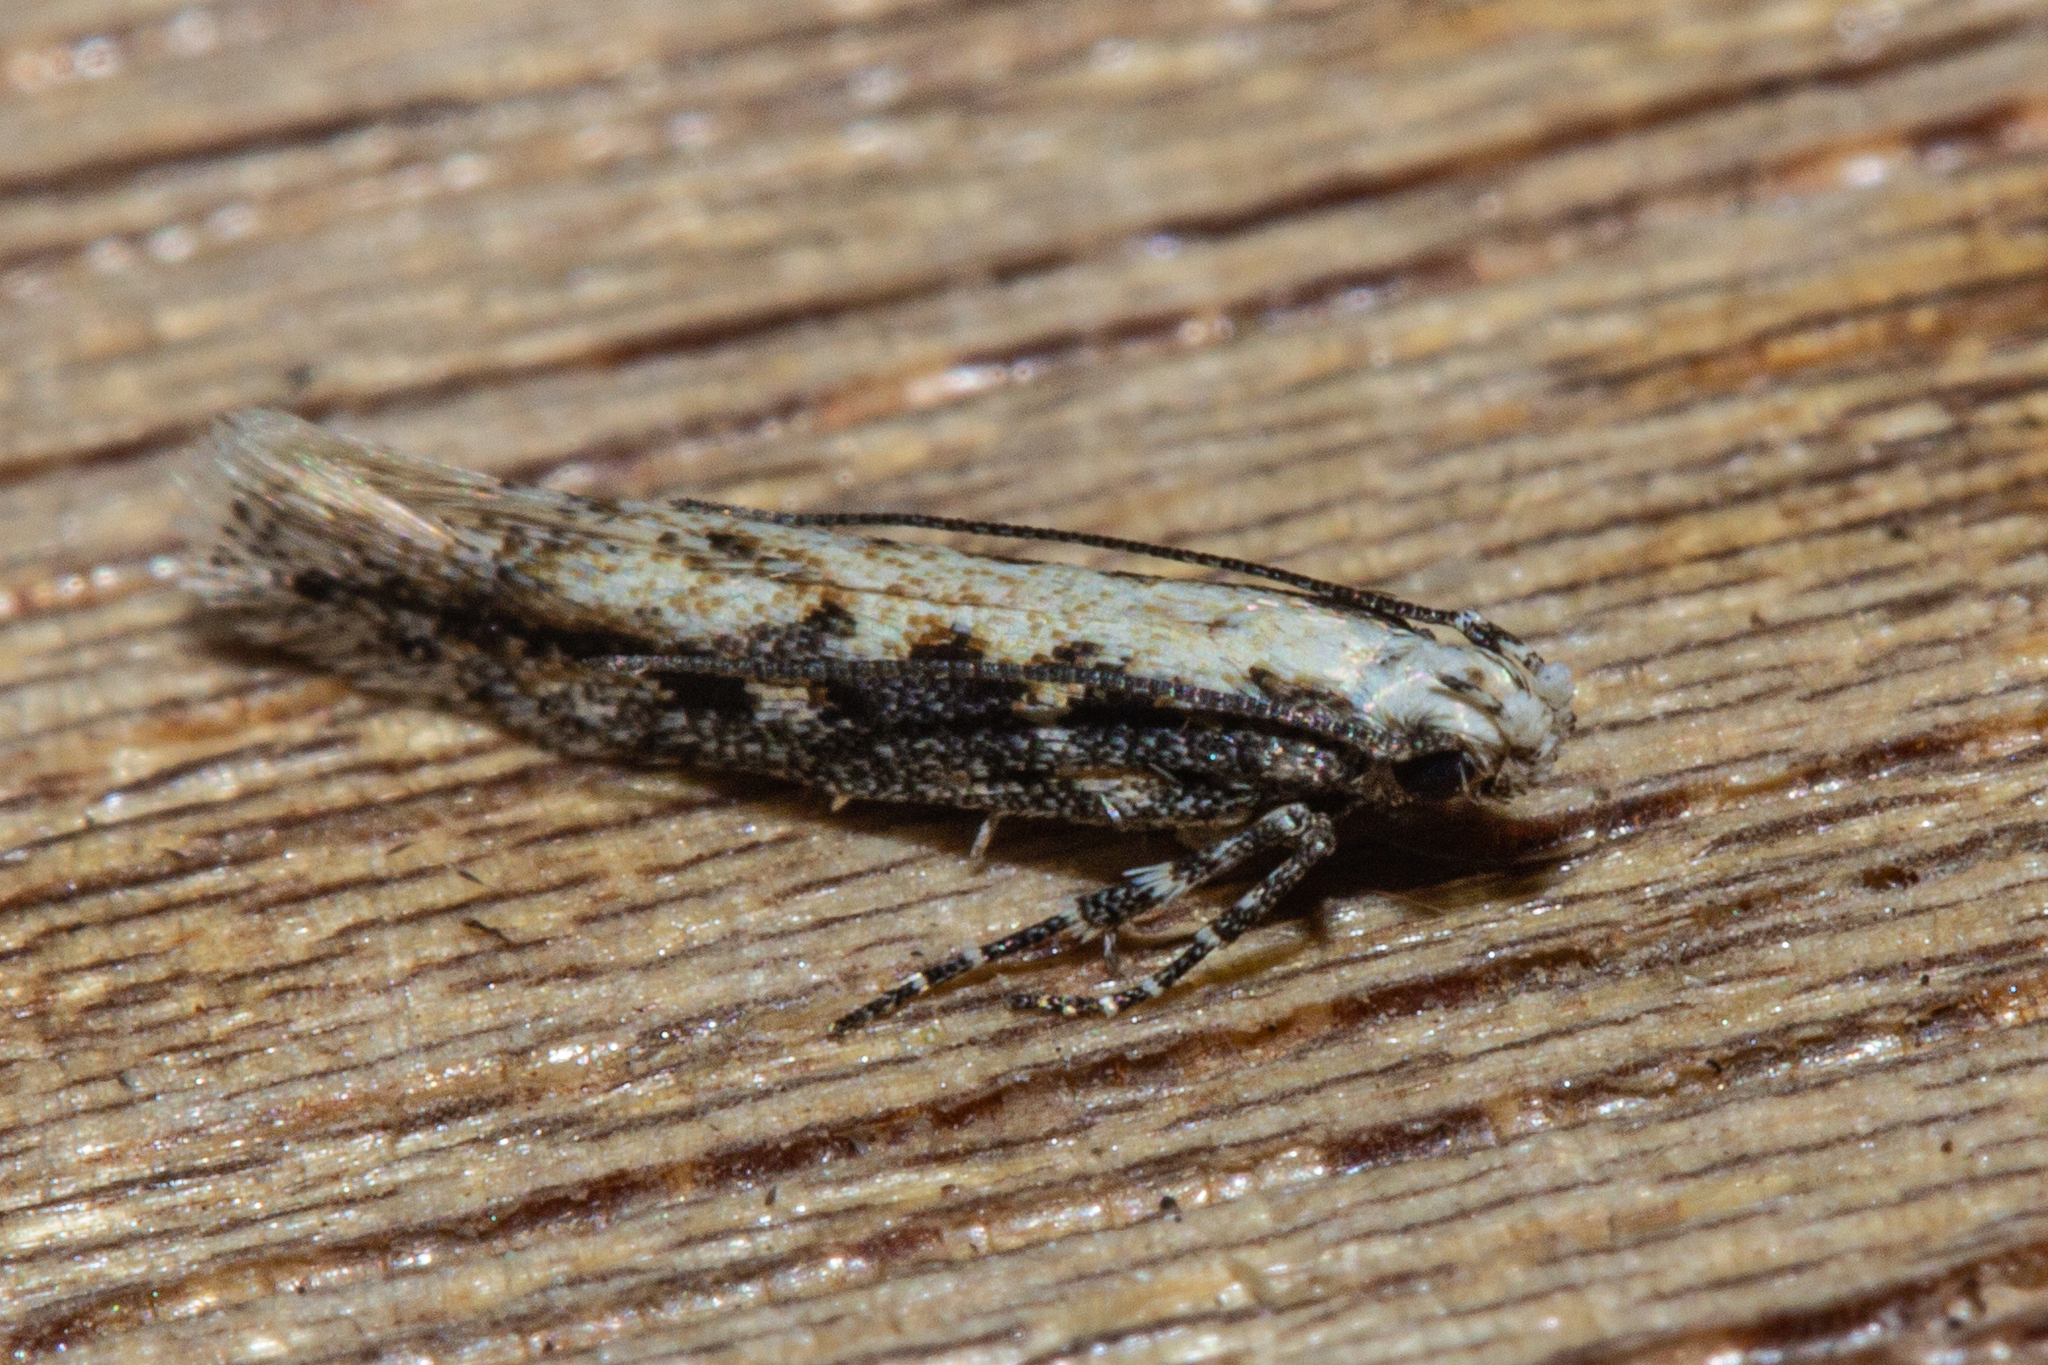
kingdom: Animalia
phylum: Arthropoda
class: Insecta
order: Lepidoptera
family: Gelechiidae
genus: Kiwaia
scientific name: Kiwaia brontophora
